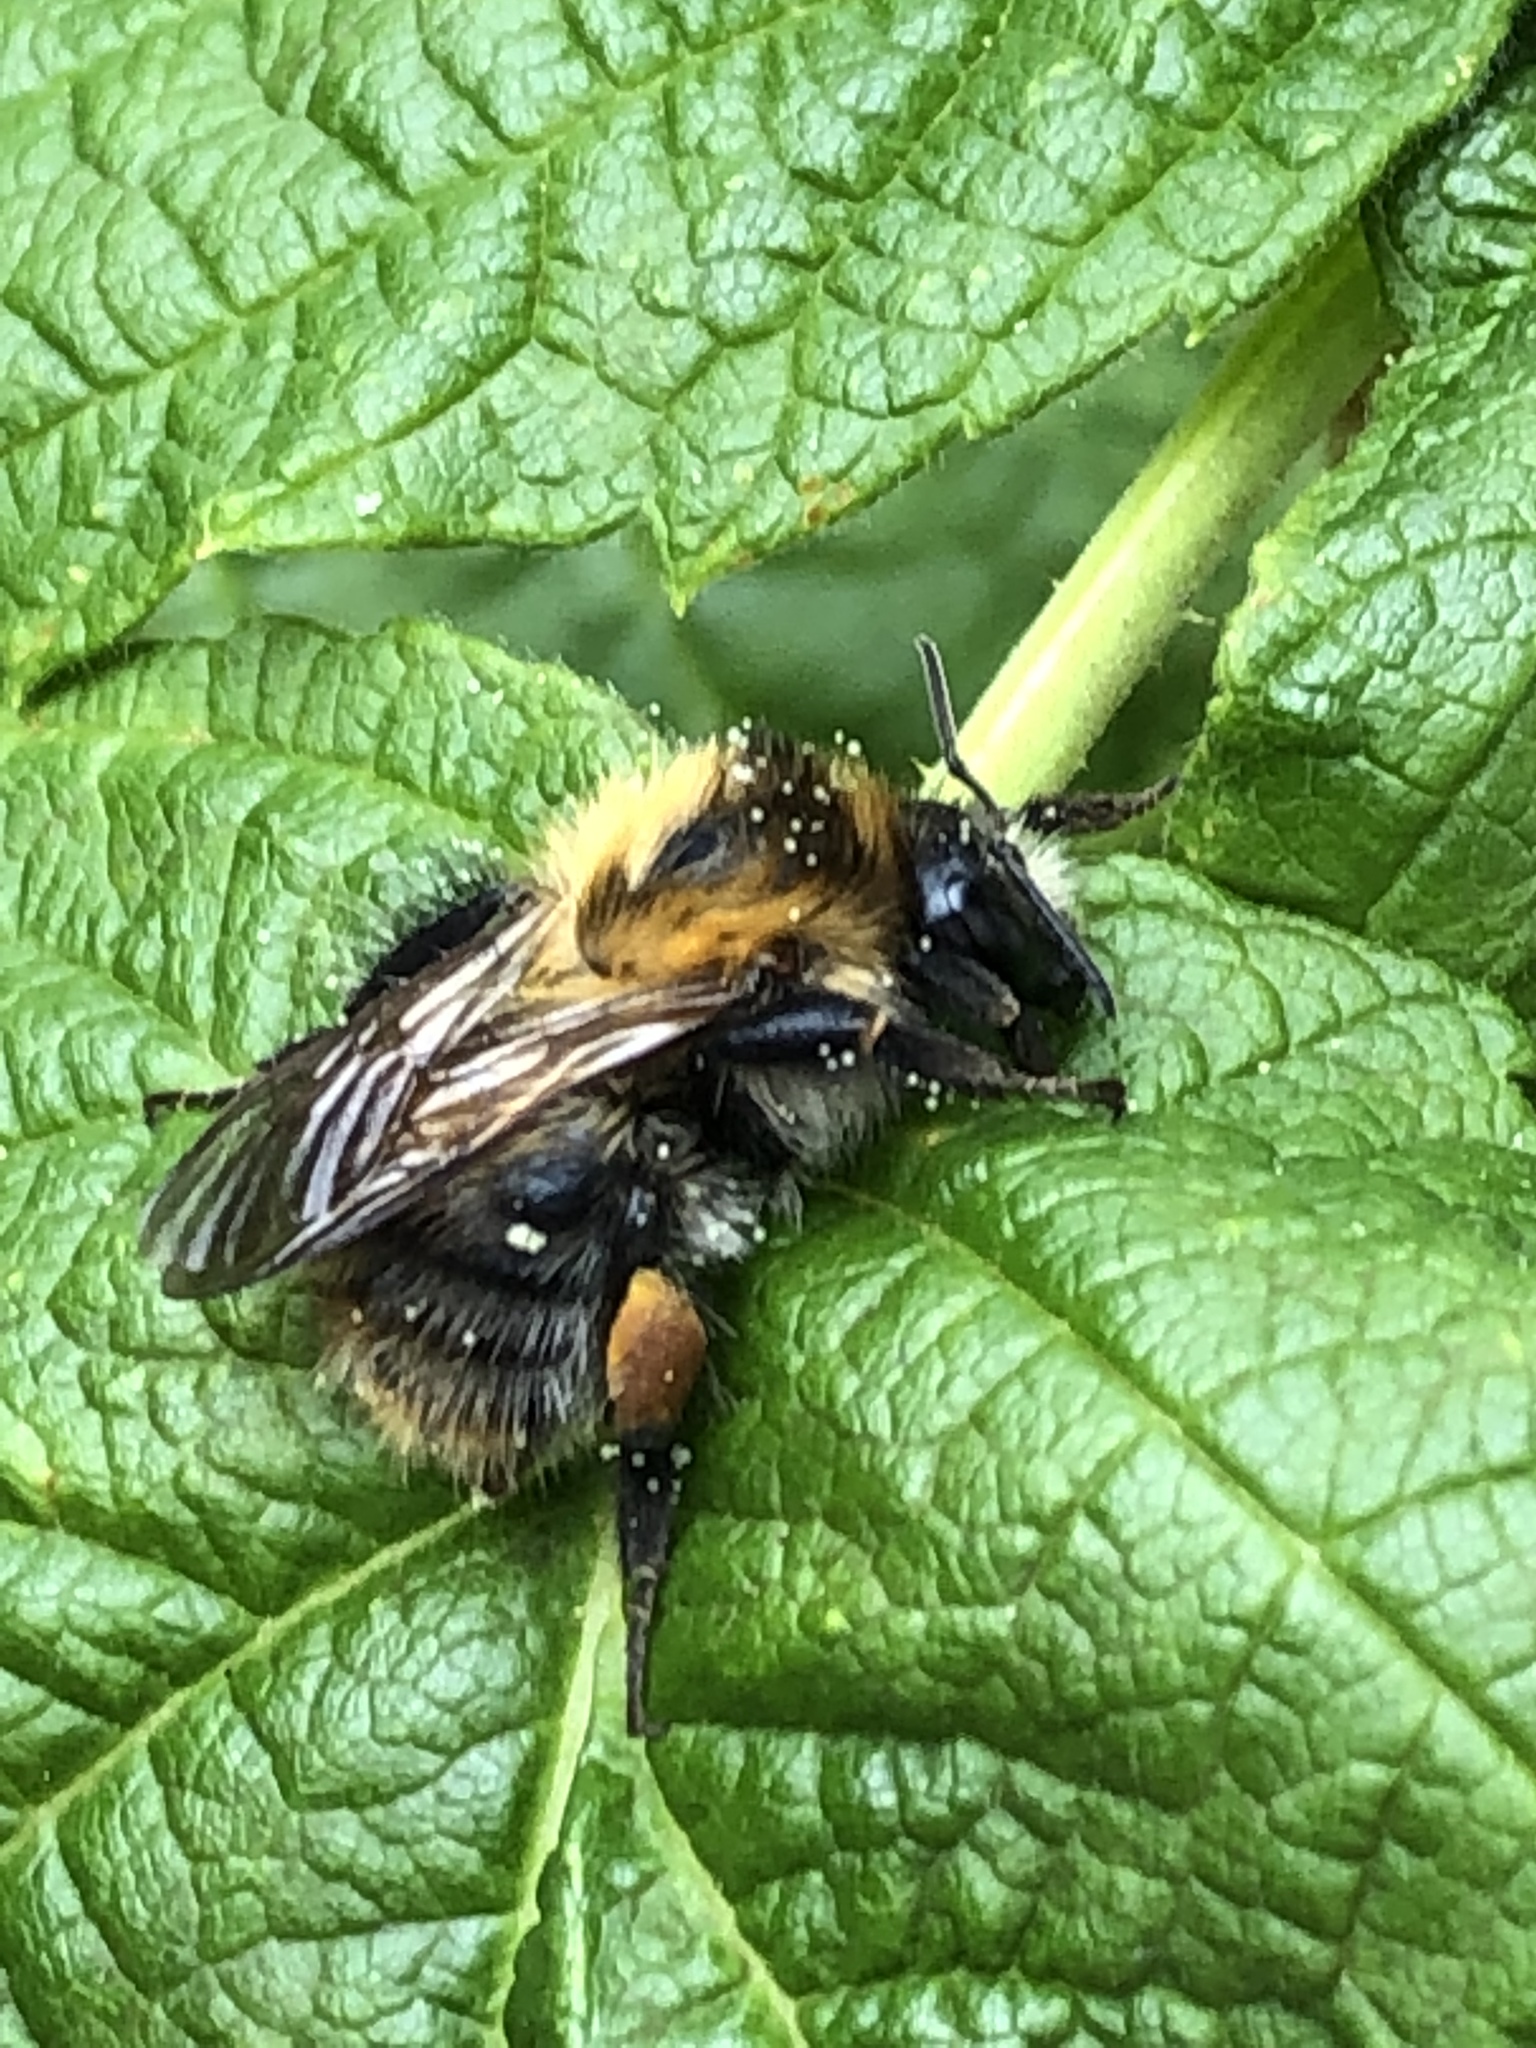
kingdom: Animalia
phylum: Arthropoda
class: Insecta
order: Hymenoptera
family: Apidae
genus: Bombus
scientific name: Bombus pascuorum
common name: Common carder bee
